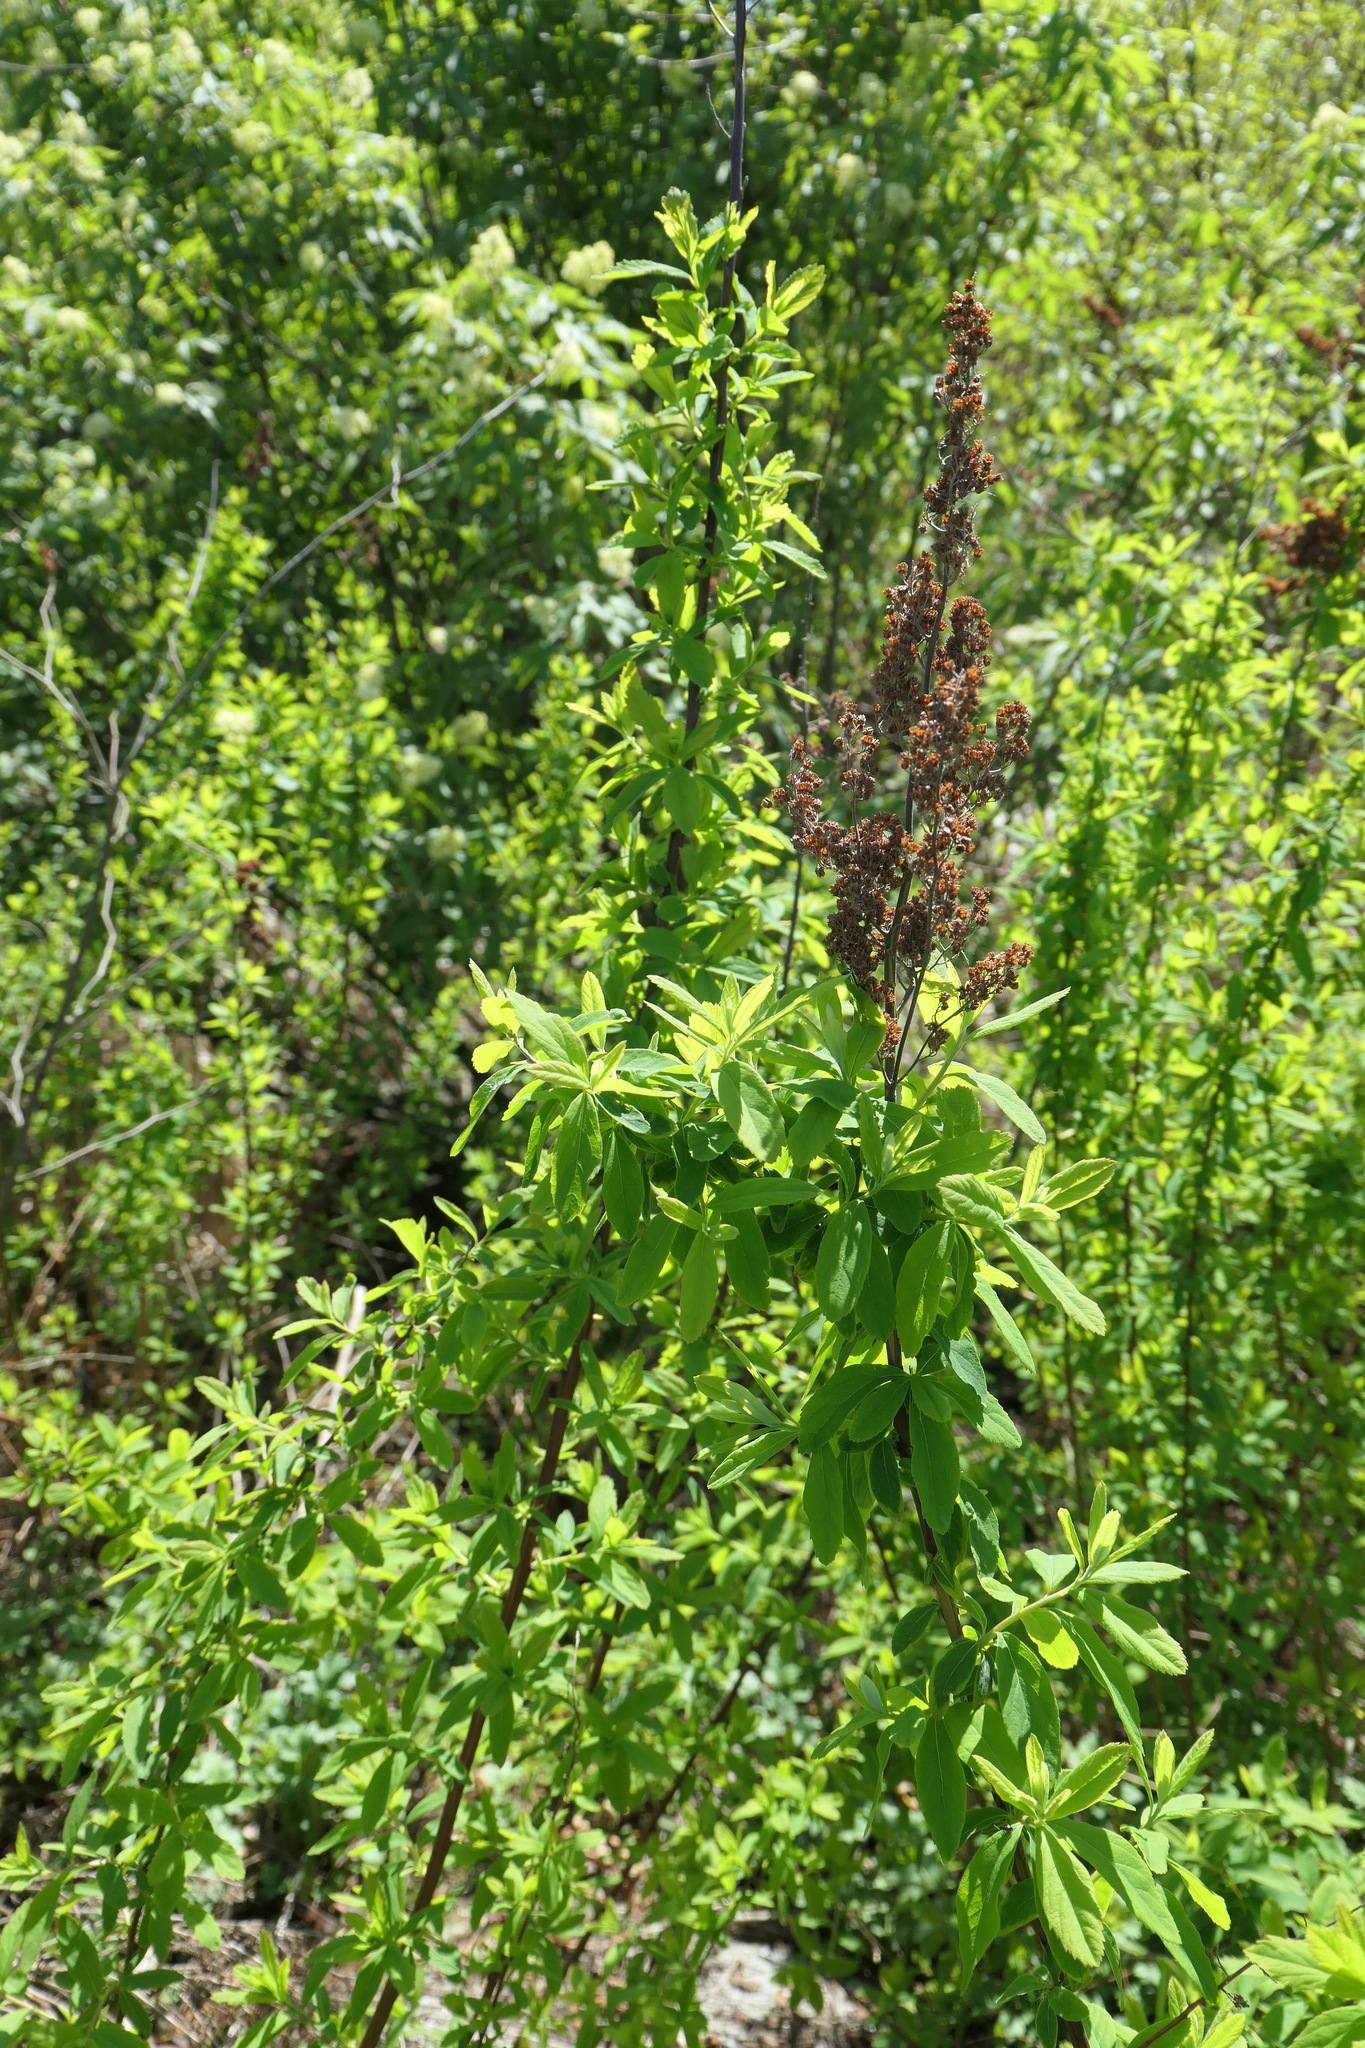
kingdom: Plantae
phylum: Tracheophyta
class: Magnoliopsida
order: Rosales
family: Rosaceae
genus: Spiraea
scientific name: Spiraea douglasii
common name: Steeplebush
